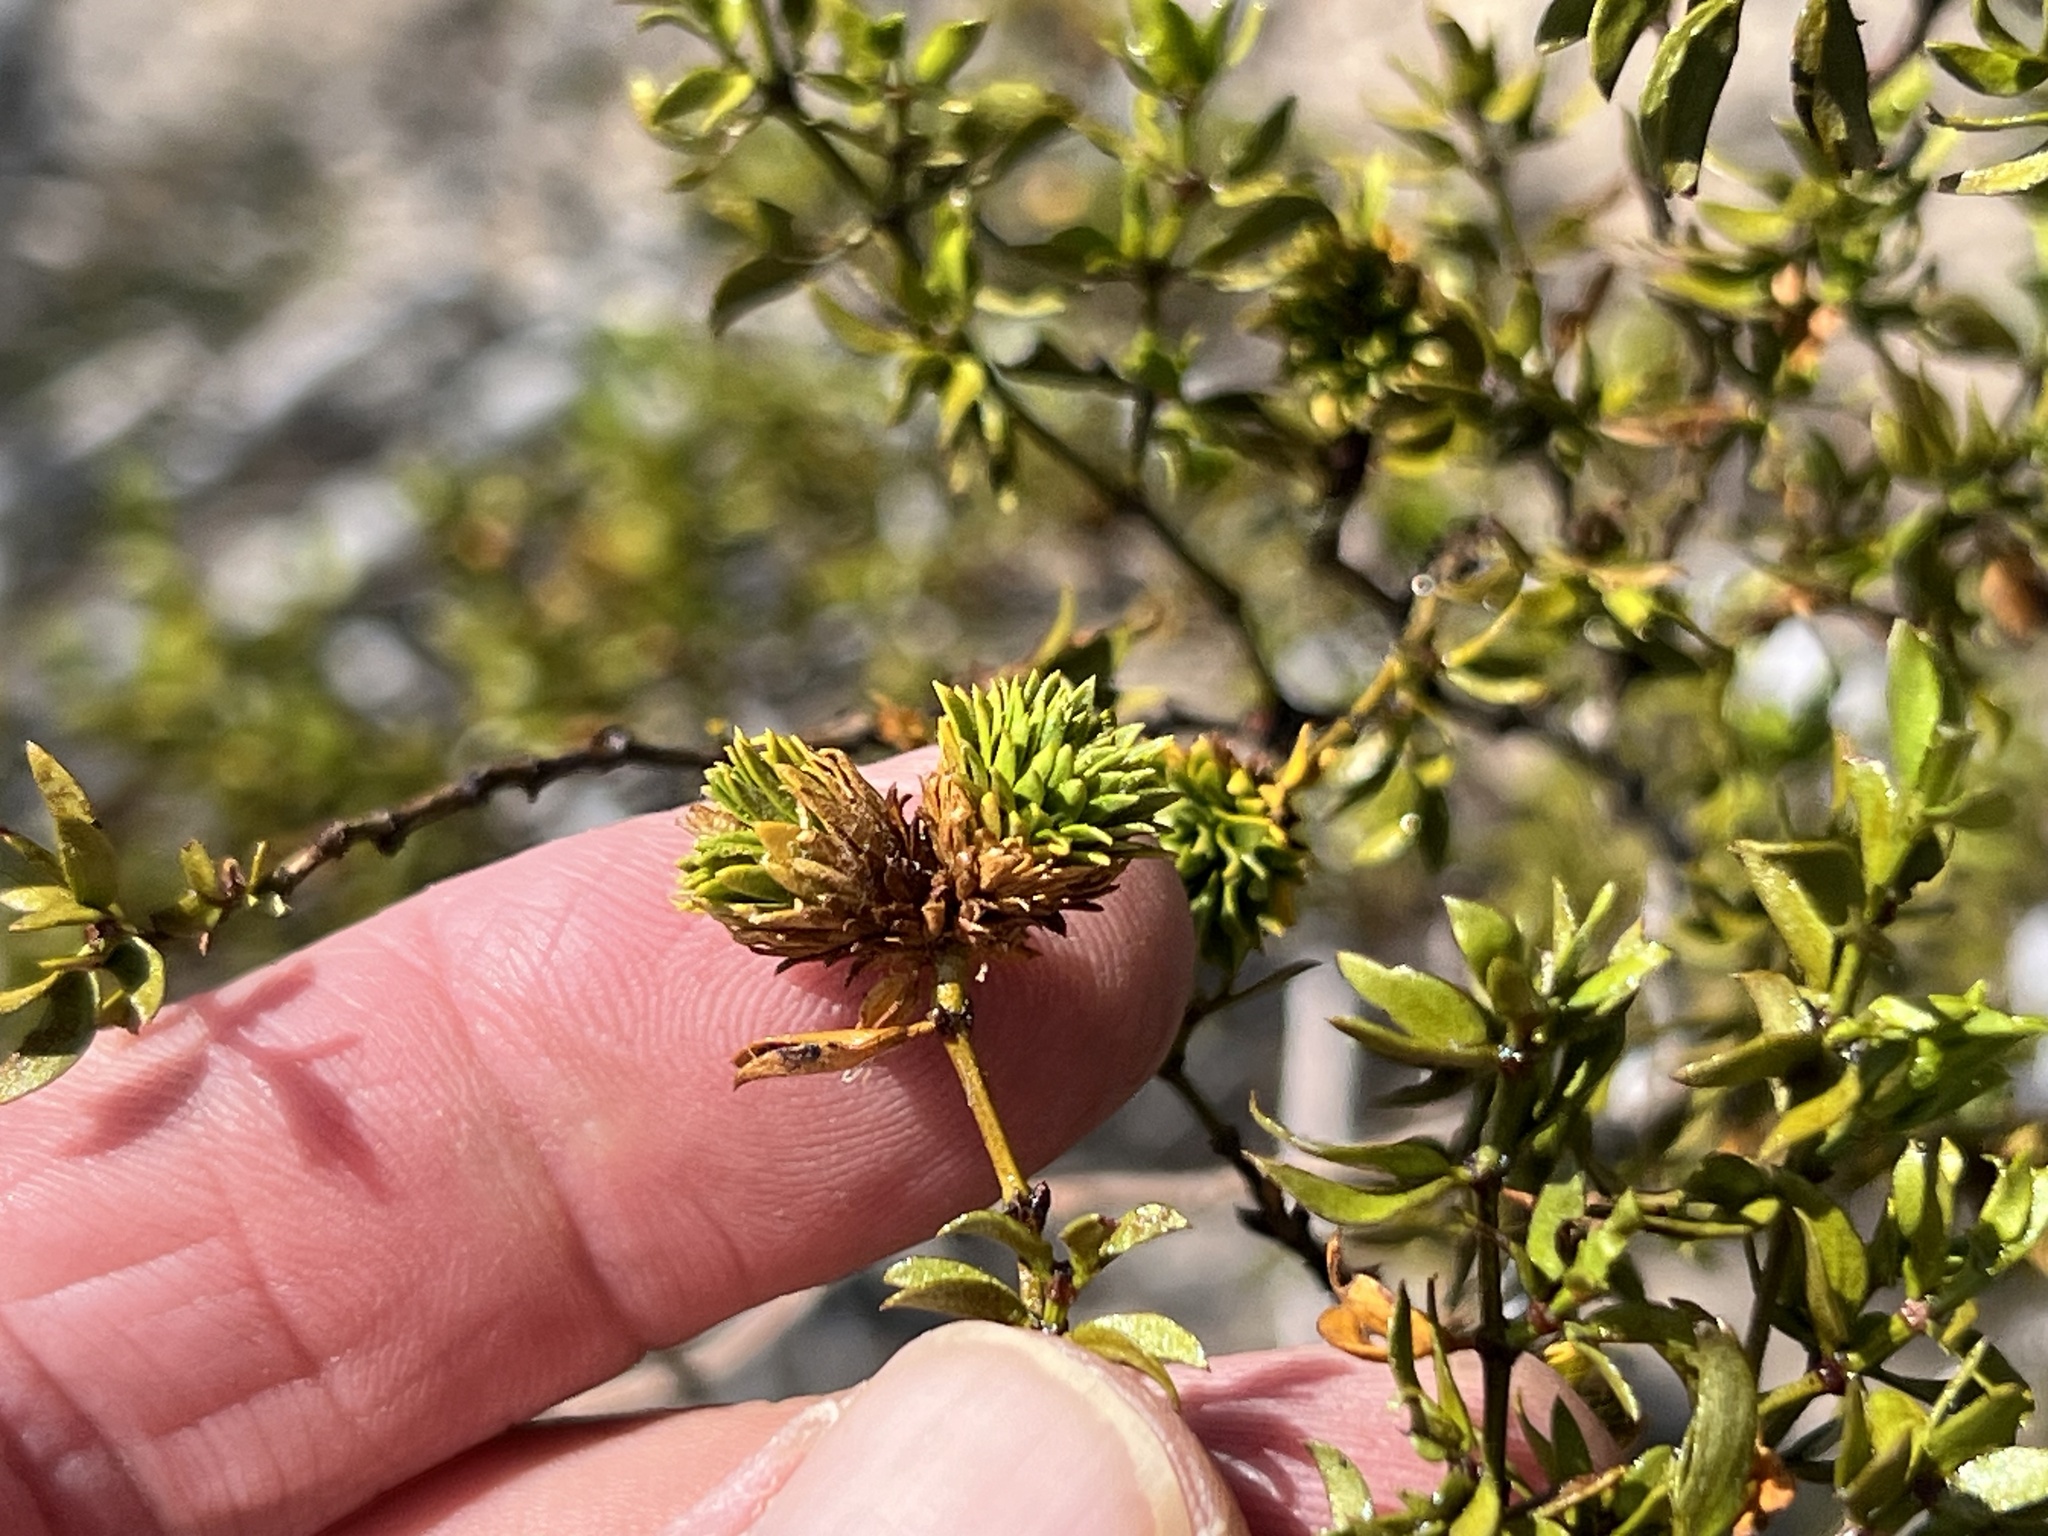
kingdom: Animalia
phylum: Arthropoda
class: Insecta
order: Diptera
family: Cecidomyiidae
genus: Asphondylia
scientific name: Asphondylia rosetta
